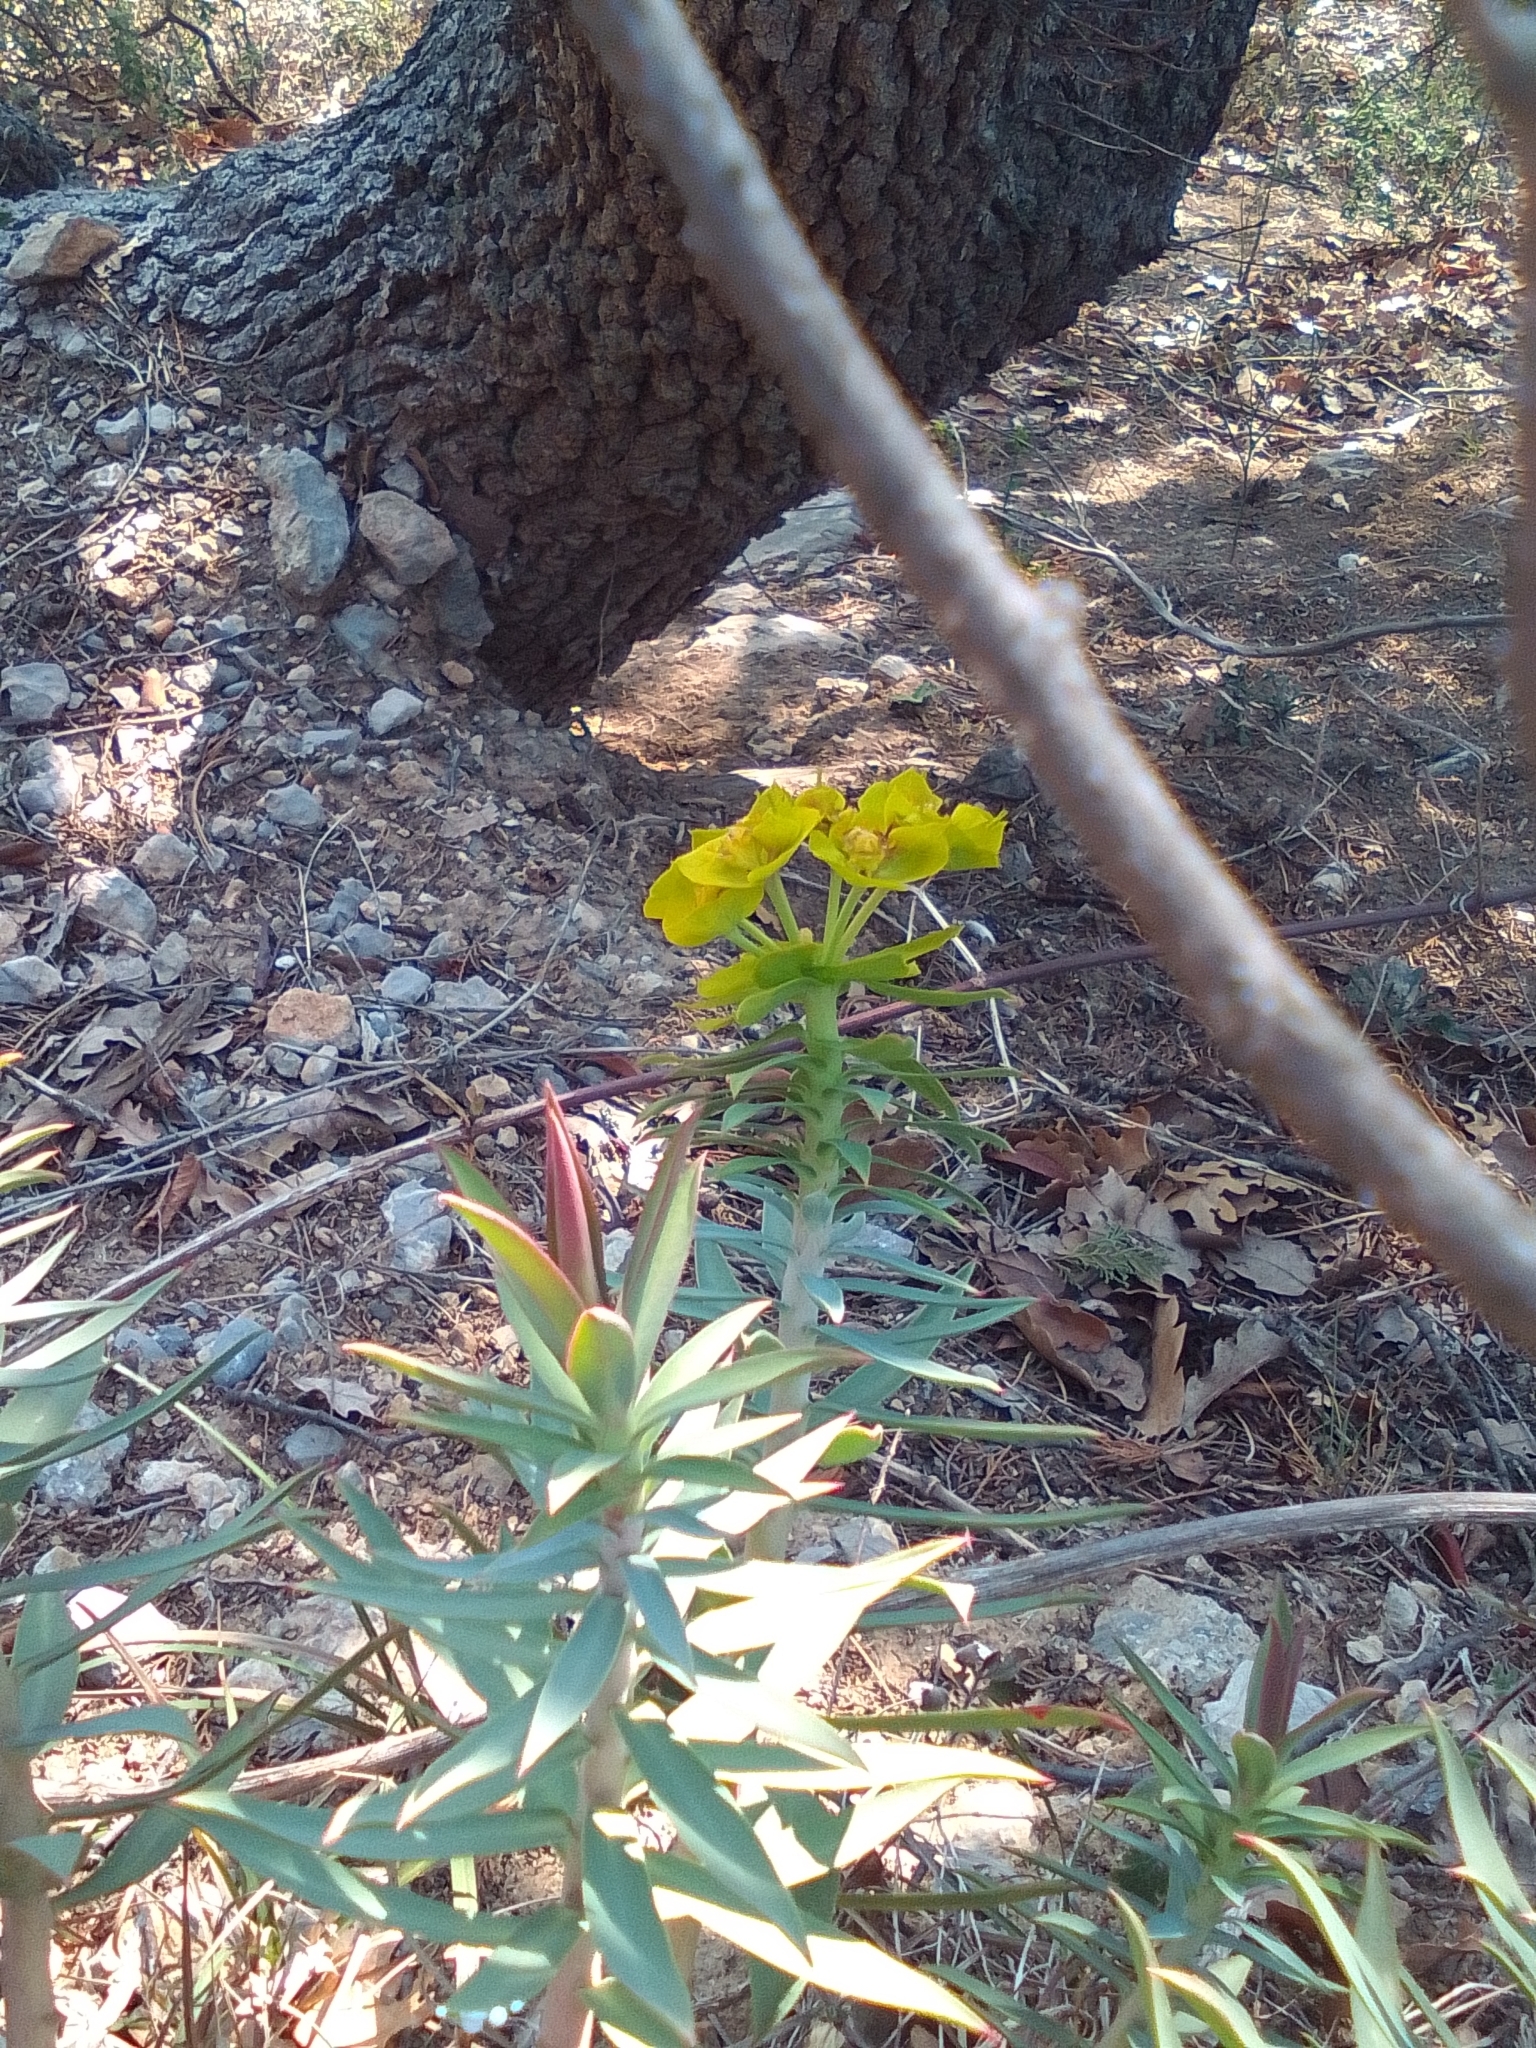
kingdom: Plantae
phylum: Tracheophyta
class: Magnoliopsida
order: Malpighiales
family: Euphorbiaceae
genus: Euphorbia
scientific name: Euphorbia rigida
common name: Upright myrtle spurge
